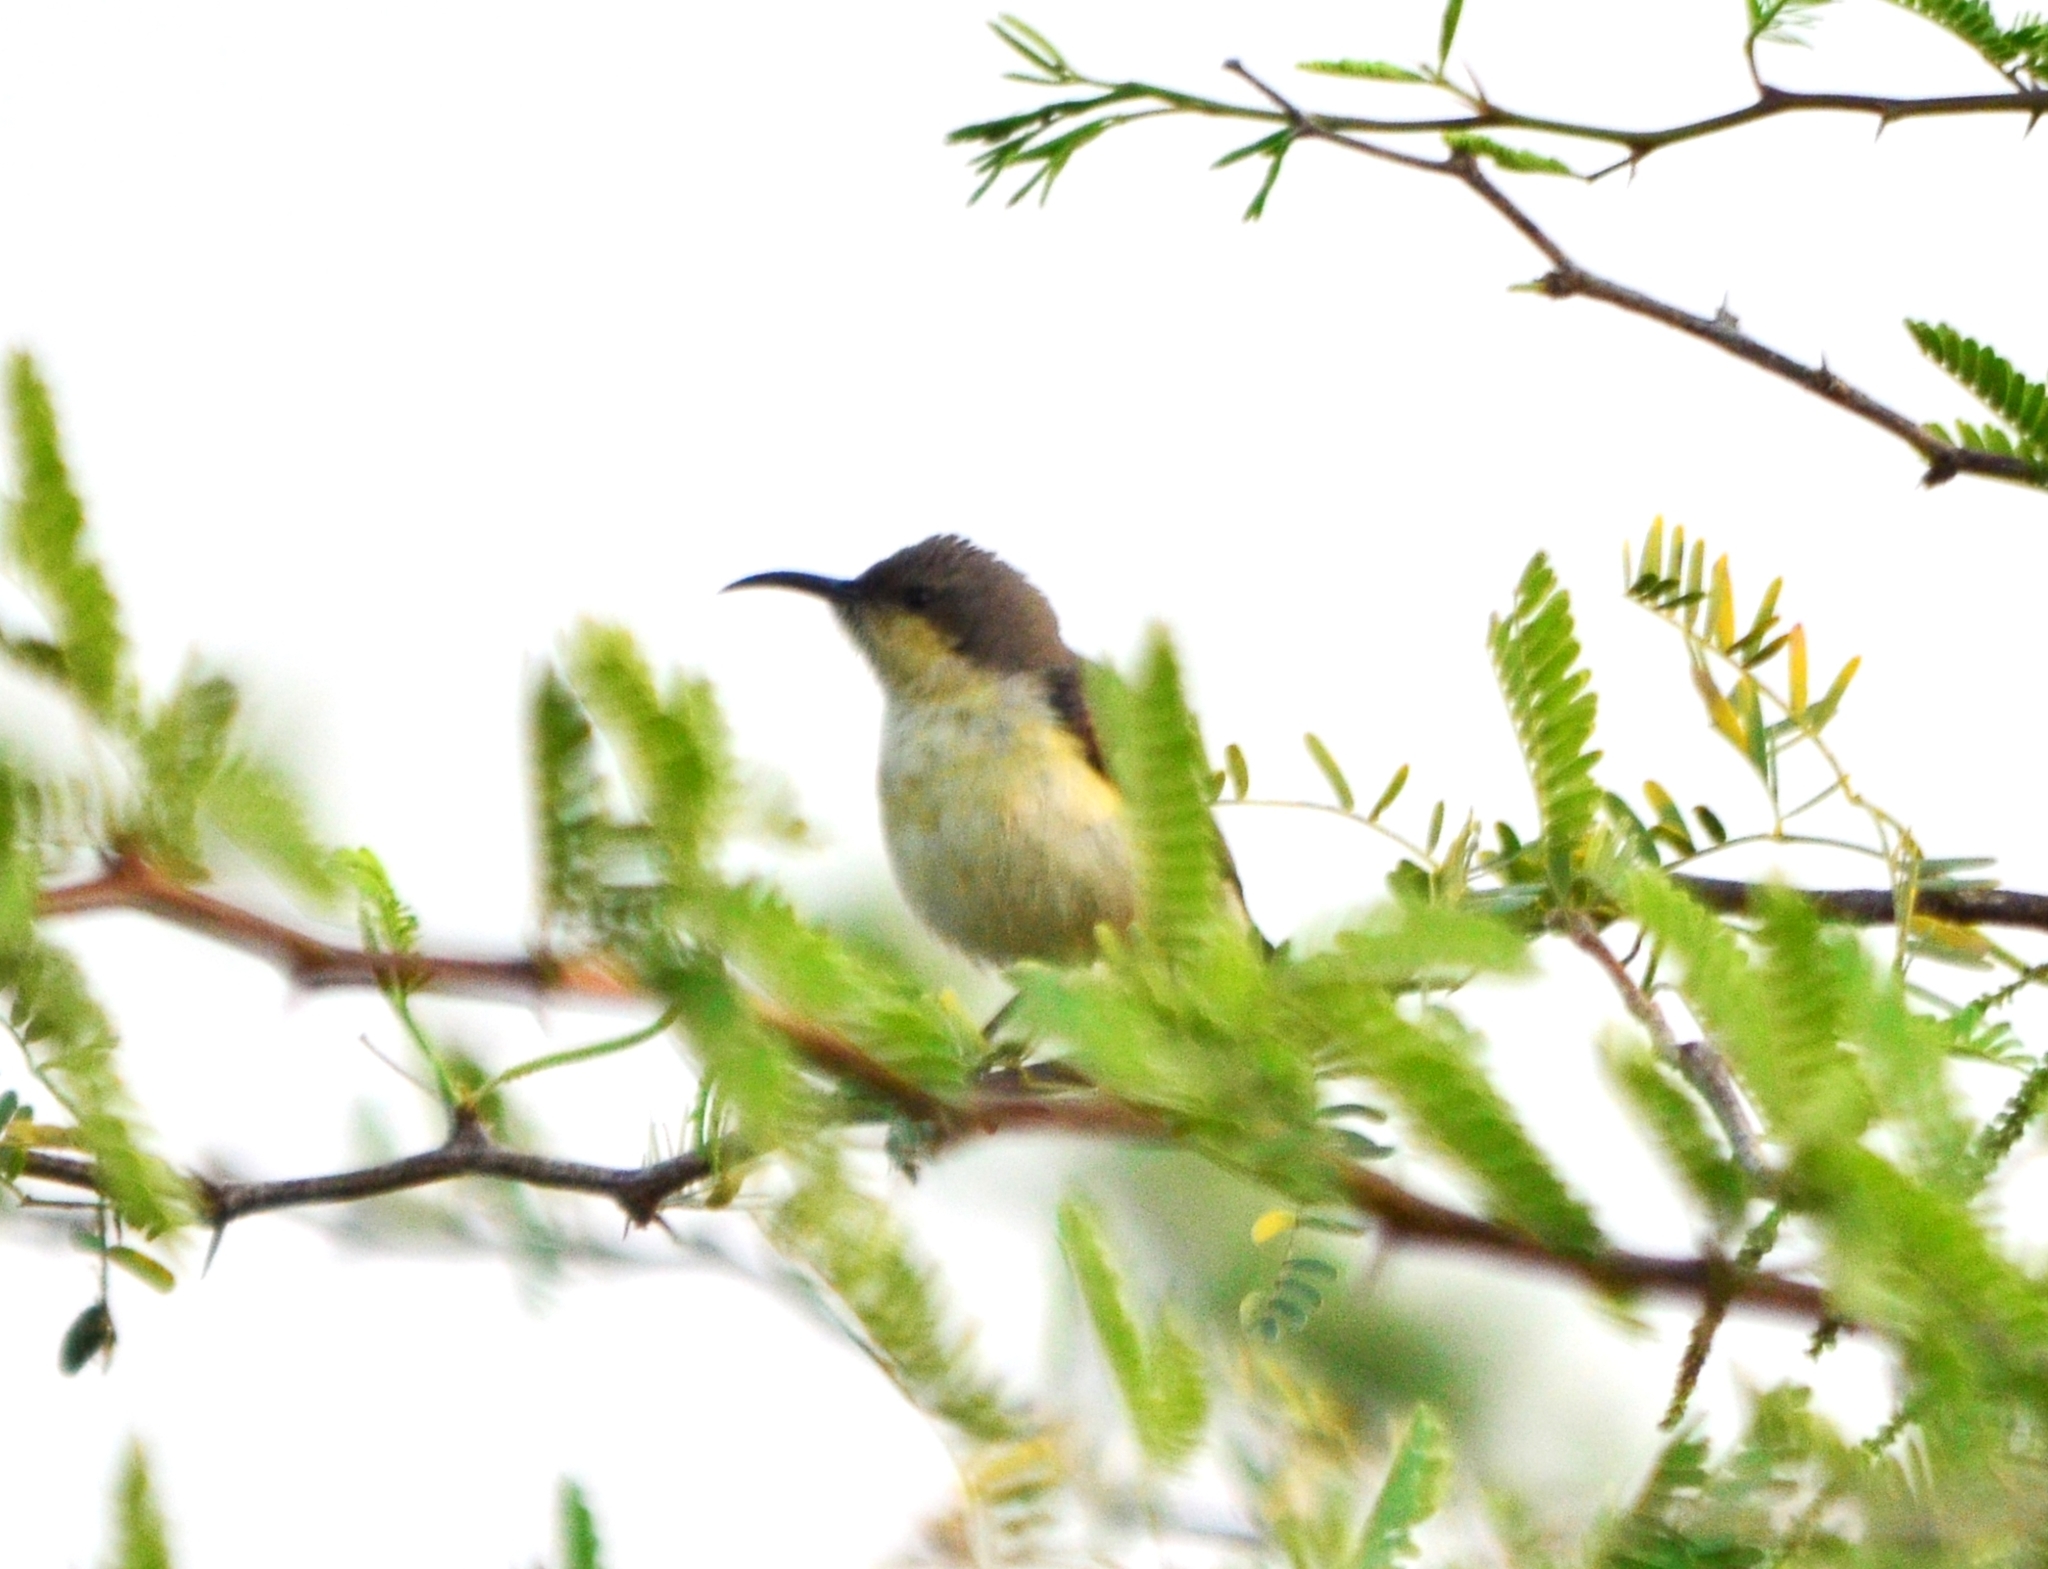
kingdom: Animalia
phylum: Chordata
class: Aves
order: Passeriformes
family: Nectariniidae
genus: Cinnyris
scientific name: Cinnyris asiaticus
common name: Purple sunbird
